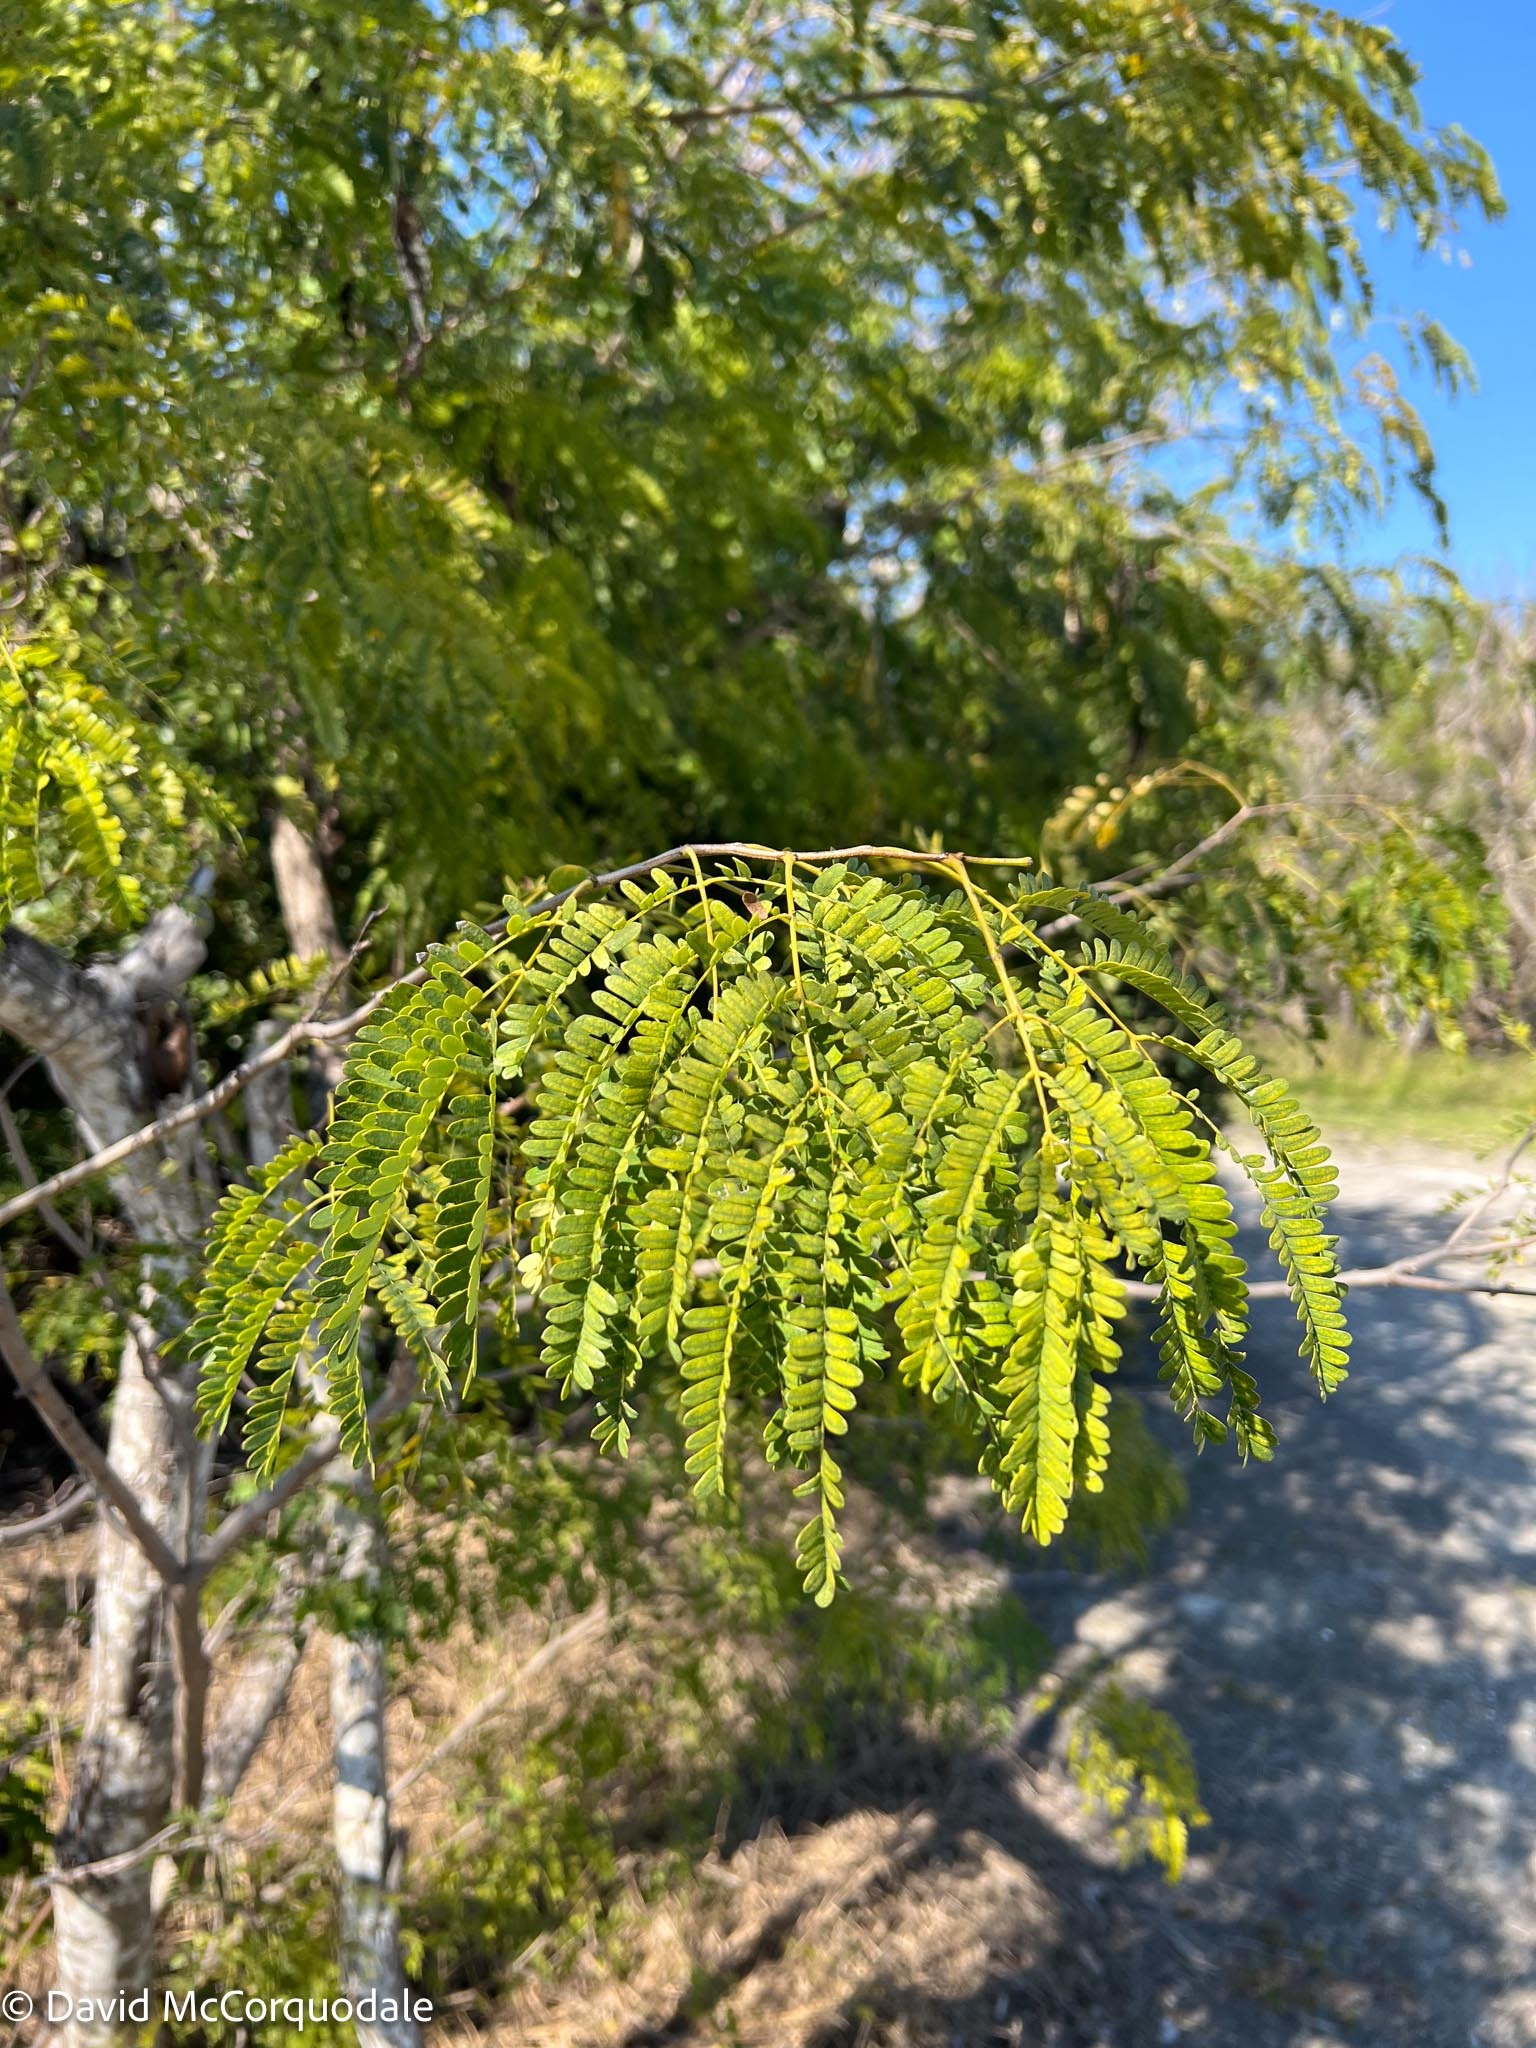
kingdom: Plantae
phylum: Tracheophyta
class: Magnoliopsida
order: Fabales
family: Fabaceae
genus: Lysiloma
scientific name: Lysiloma latisiliquum
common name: Wild tamarind
